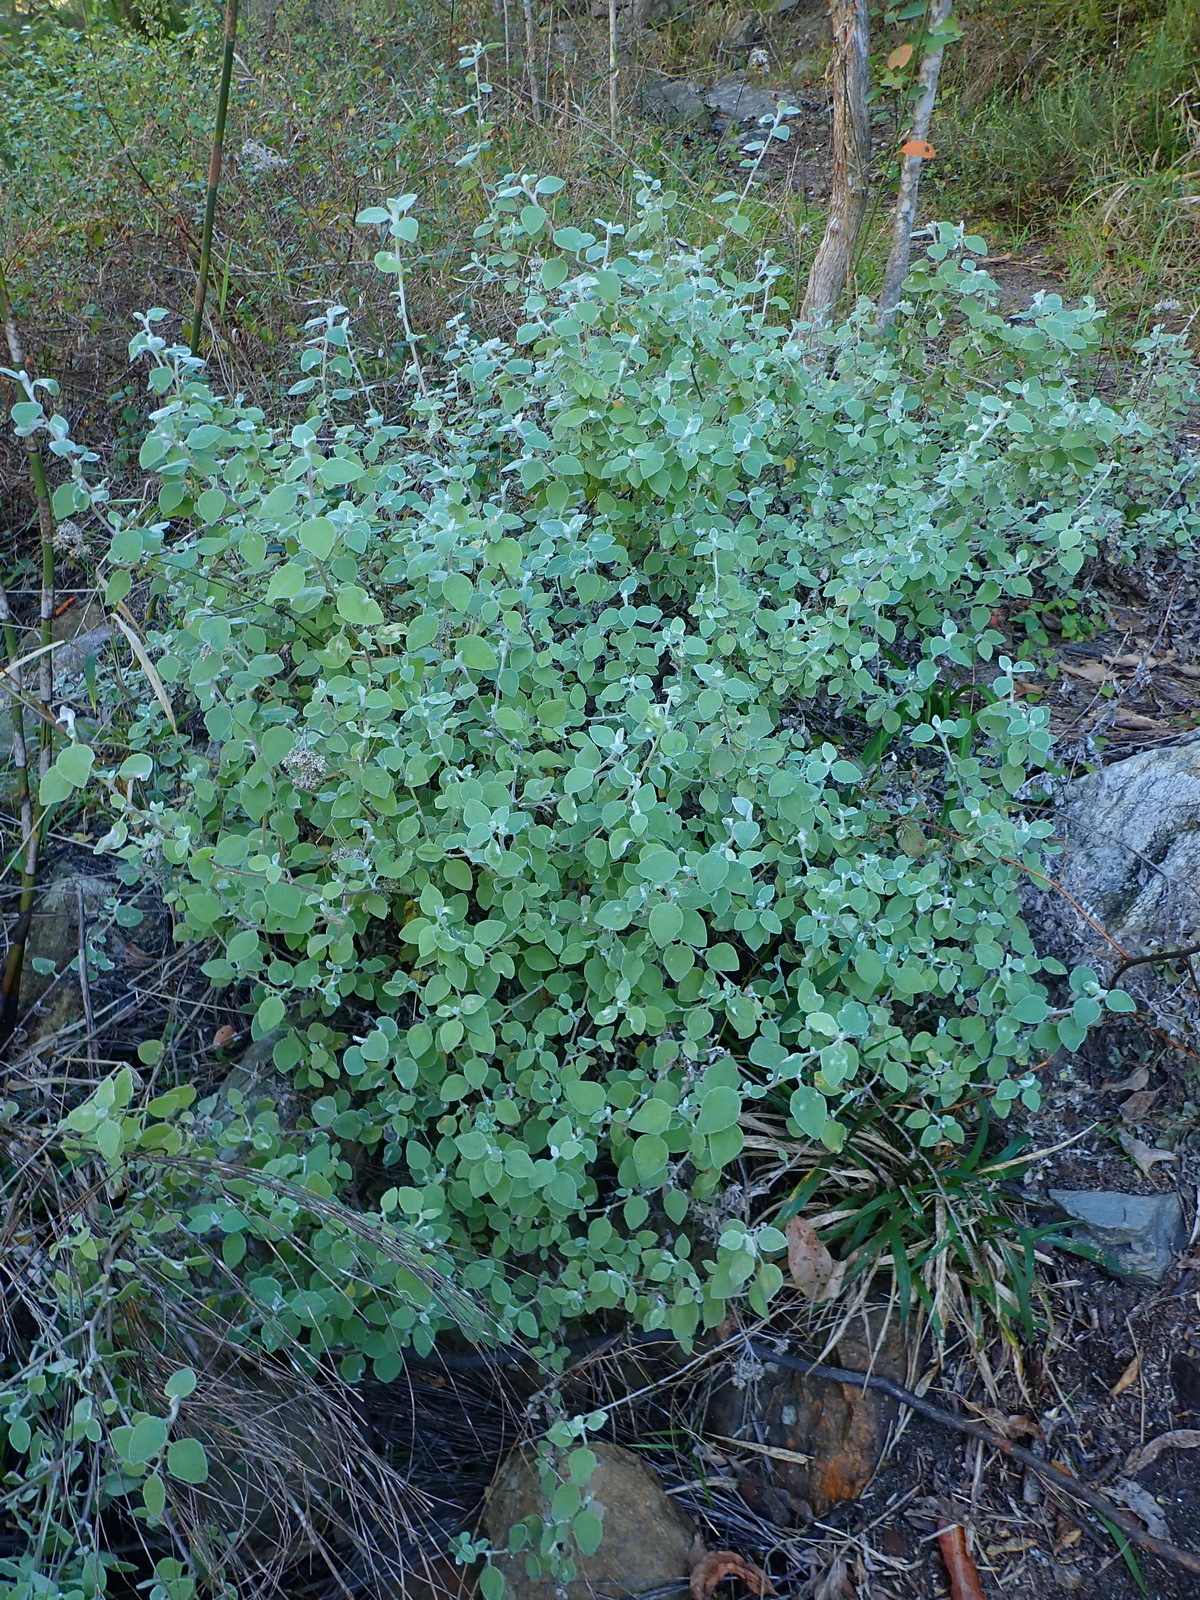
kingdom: Plantae
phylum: Tracheophyta
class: Magnoliopsida
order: Asterales
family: Asteraceae
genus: Helichrysum
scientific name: Helichrysum petiolare
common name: Licorice-plant
